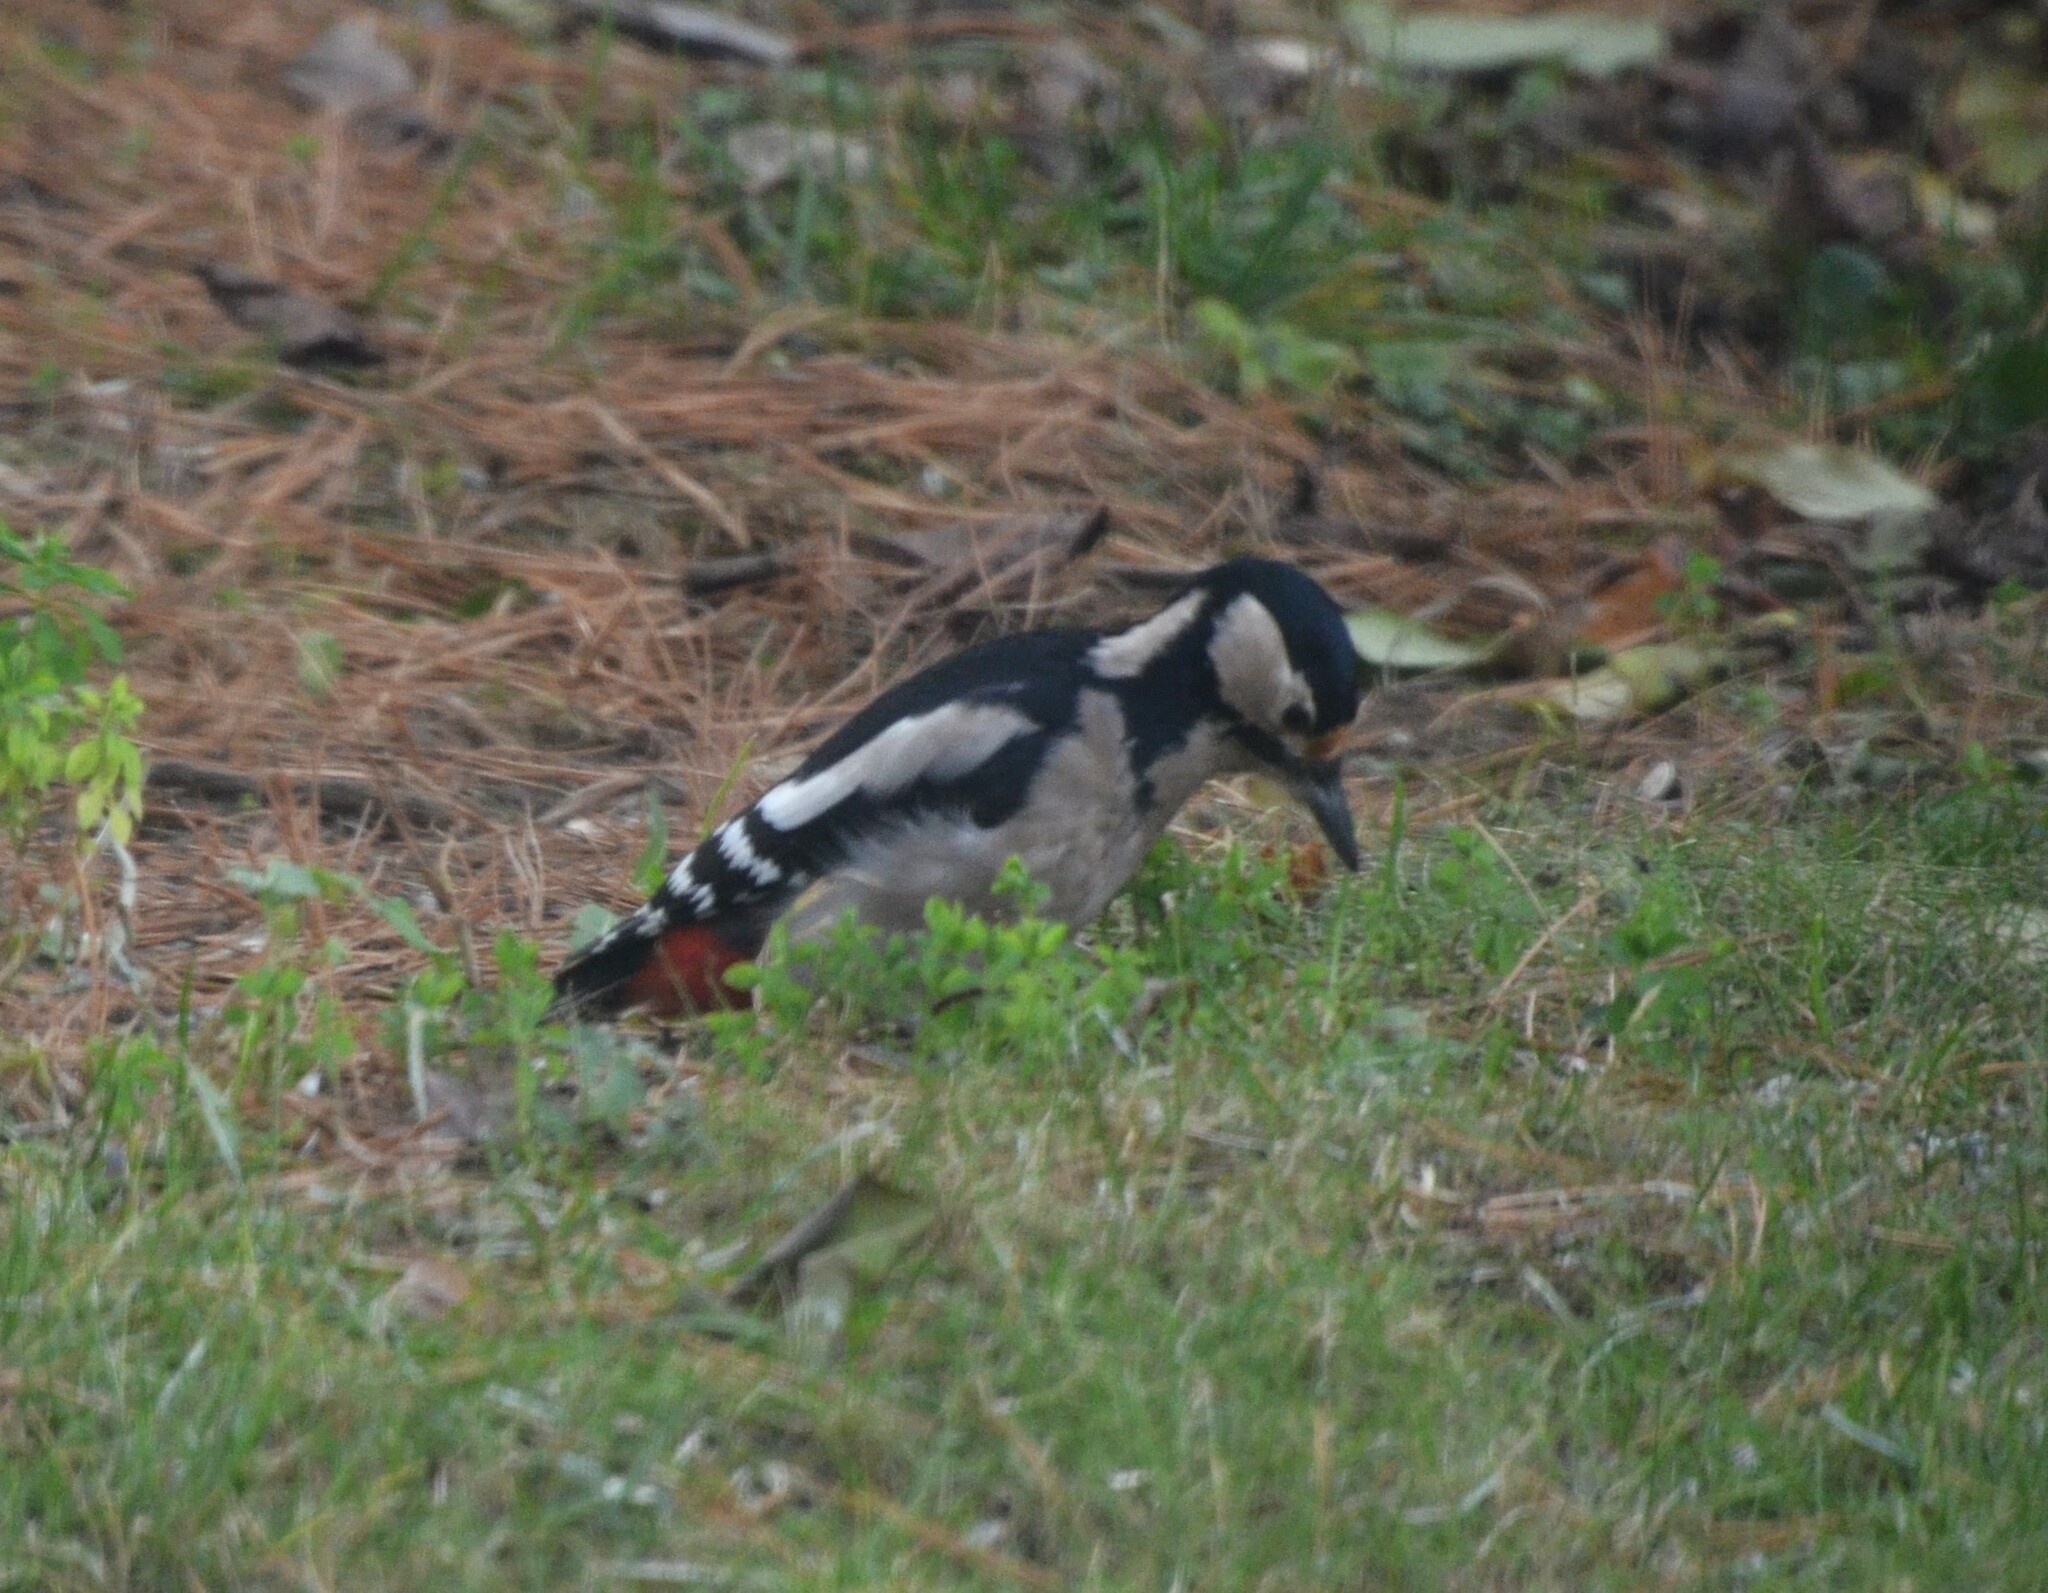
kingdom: Animalia
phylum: Chordata
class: Aves
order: Piciformes
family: Picidae
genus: Dendrocopos
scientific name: Dendrocopos major
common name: Great spotted woodpecker
